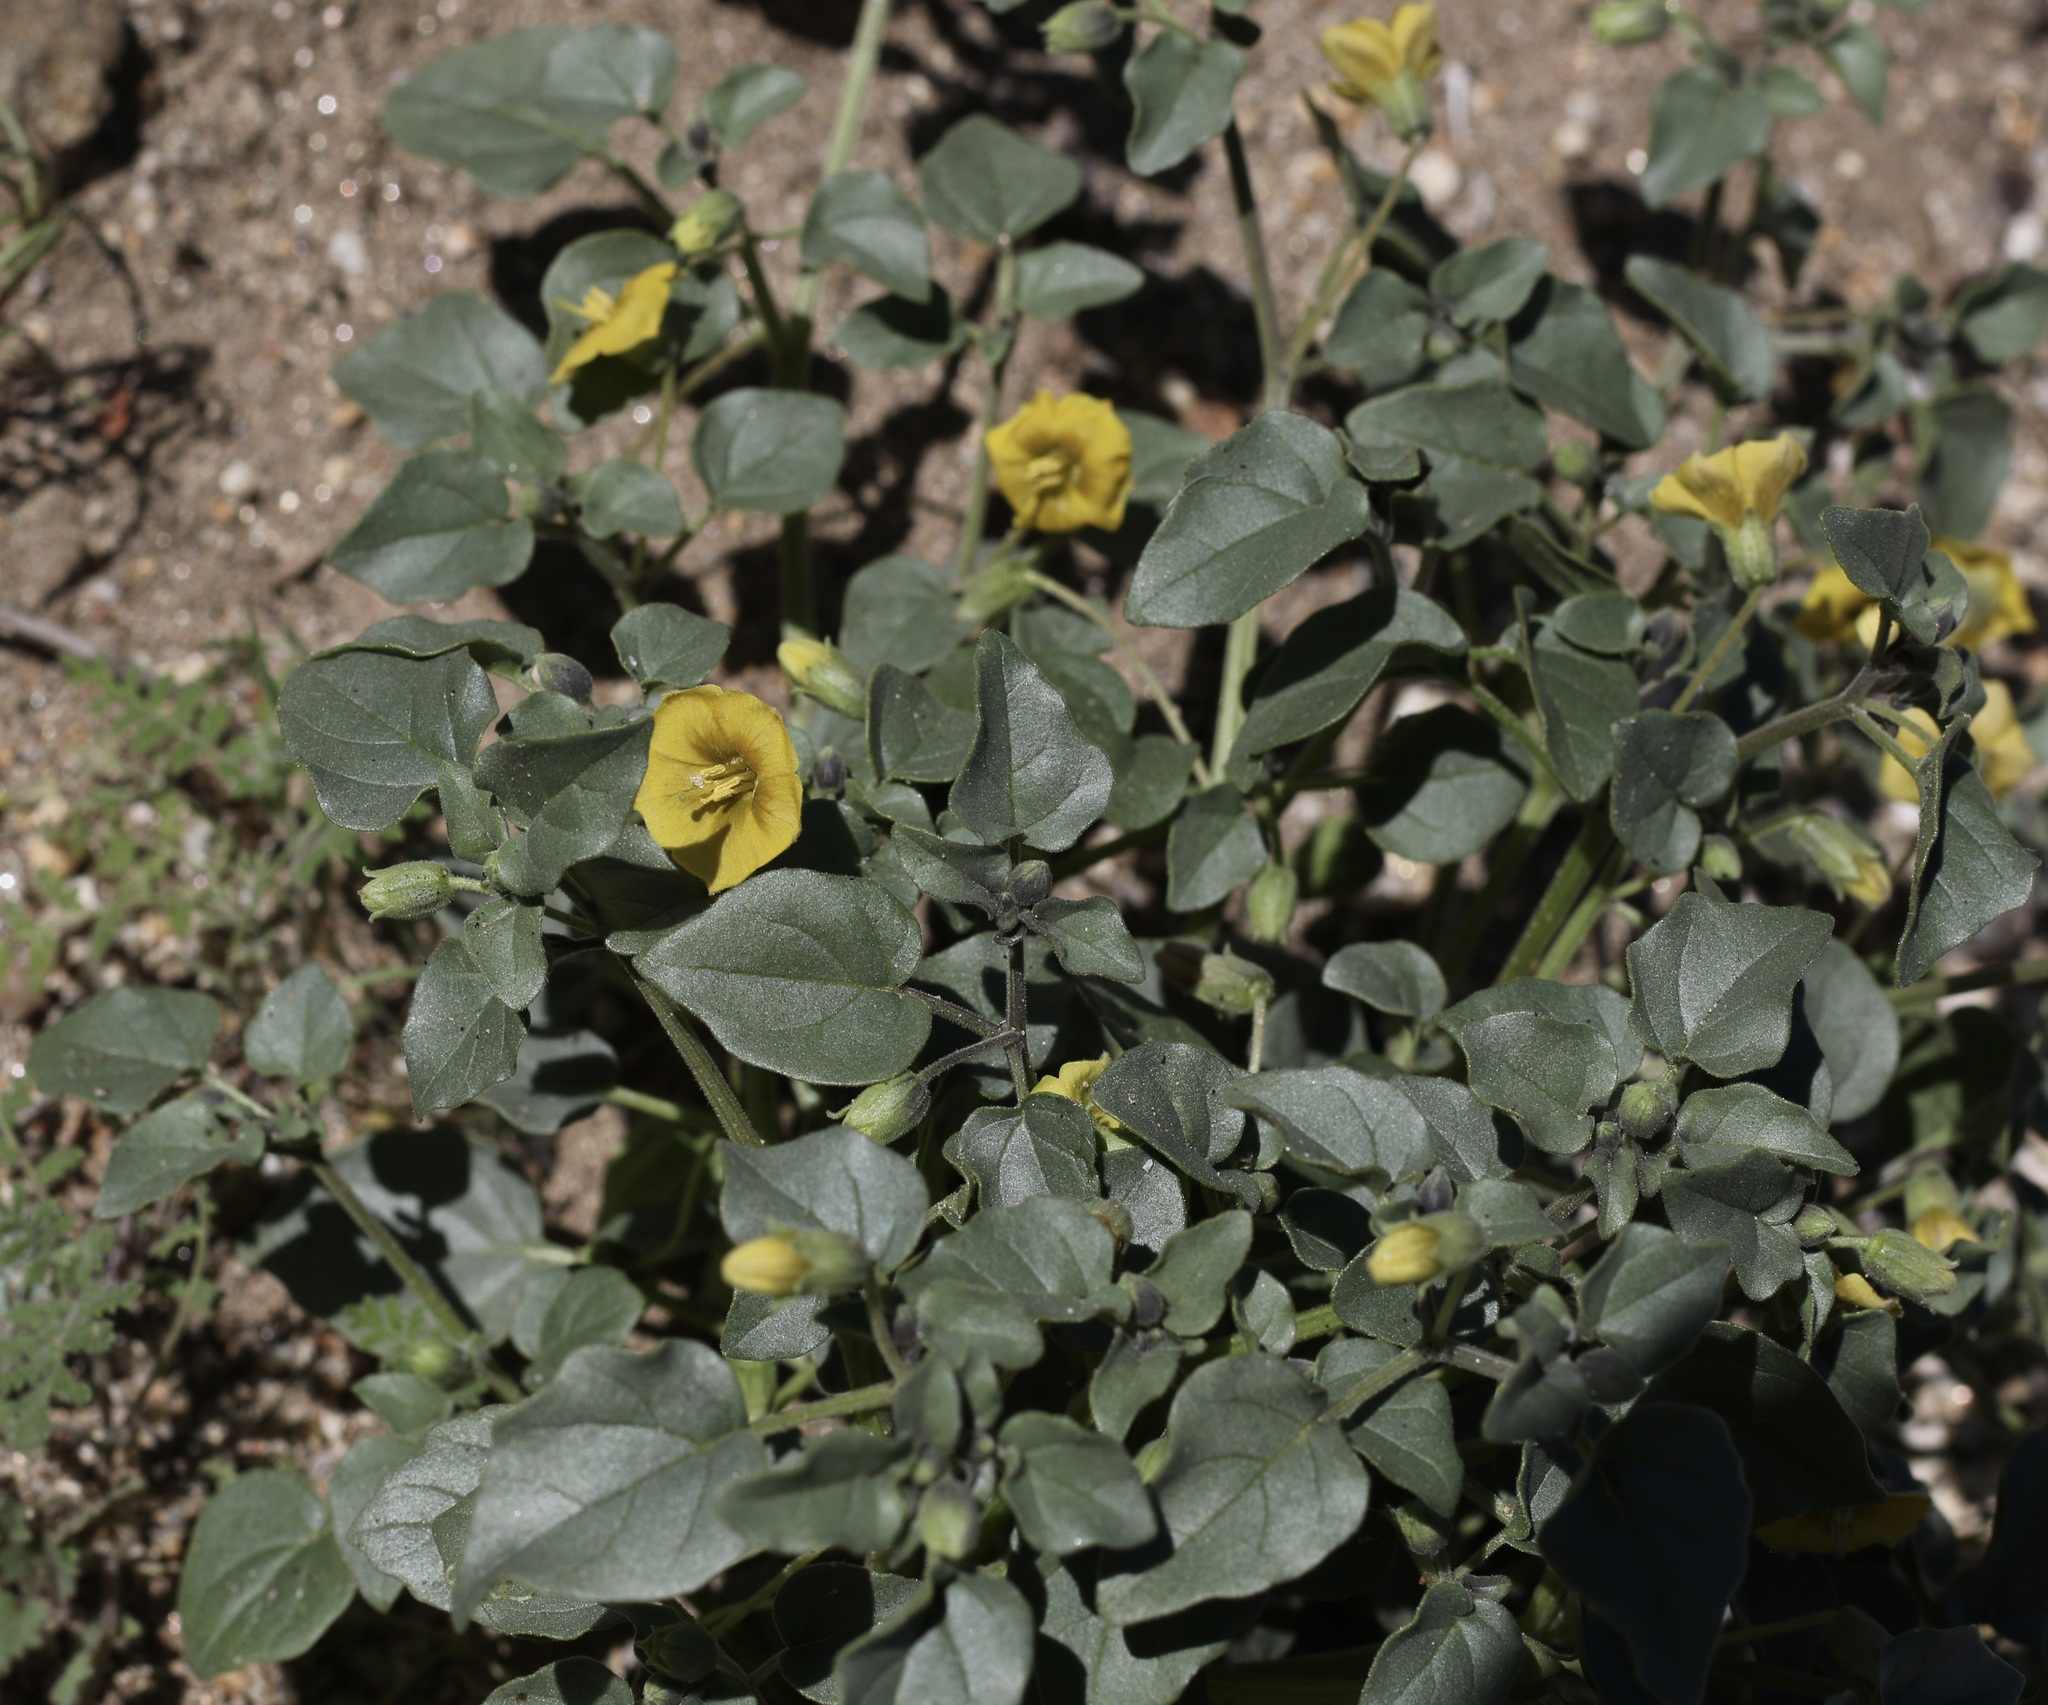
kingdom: Plantae
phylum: Tracheophyta
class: Magnoliopsida
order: Solanales
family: Solanaceae
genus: Physalis
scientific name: Physalis crassifolia
